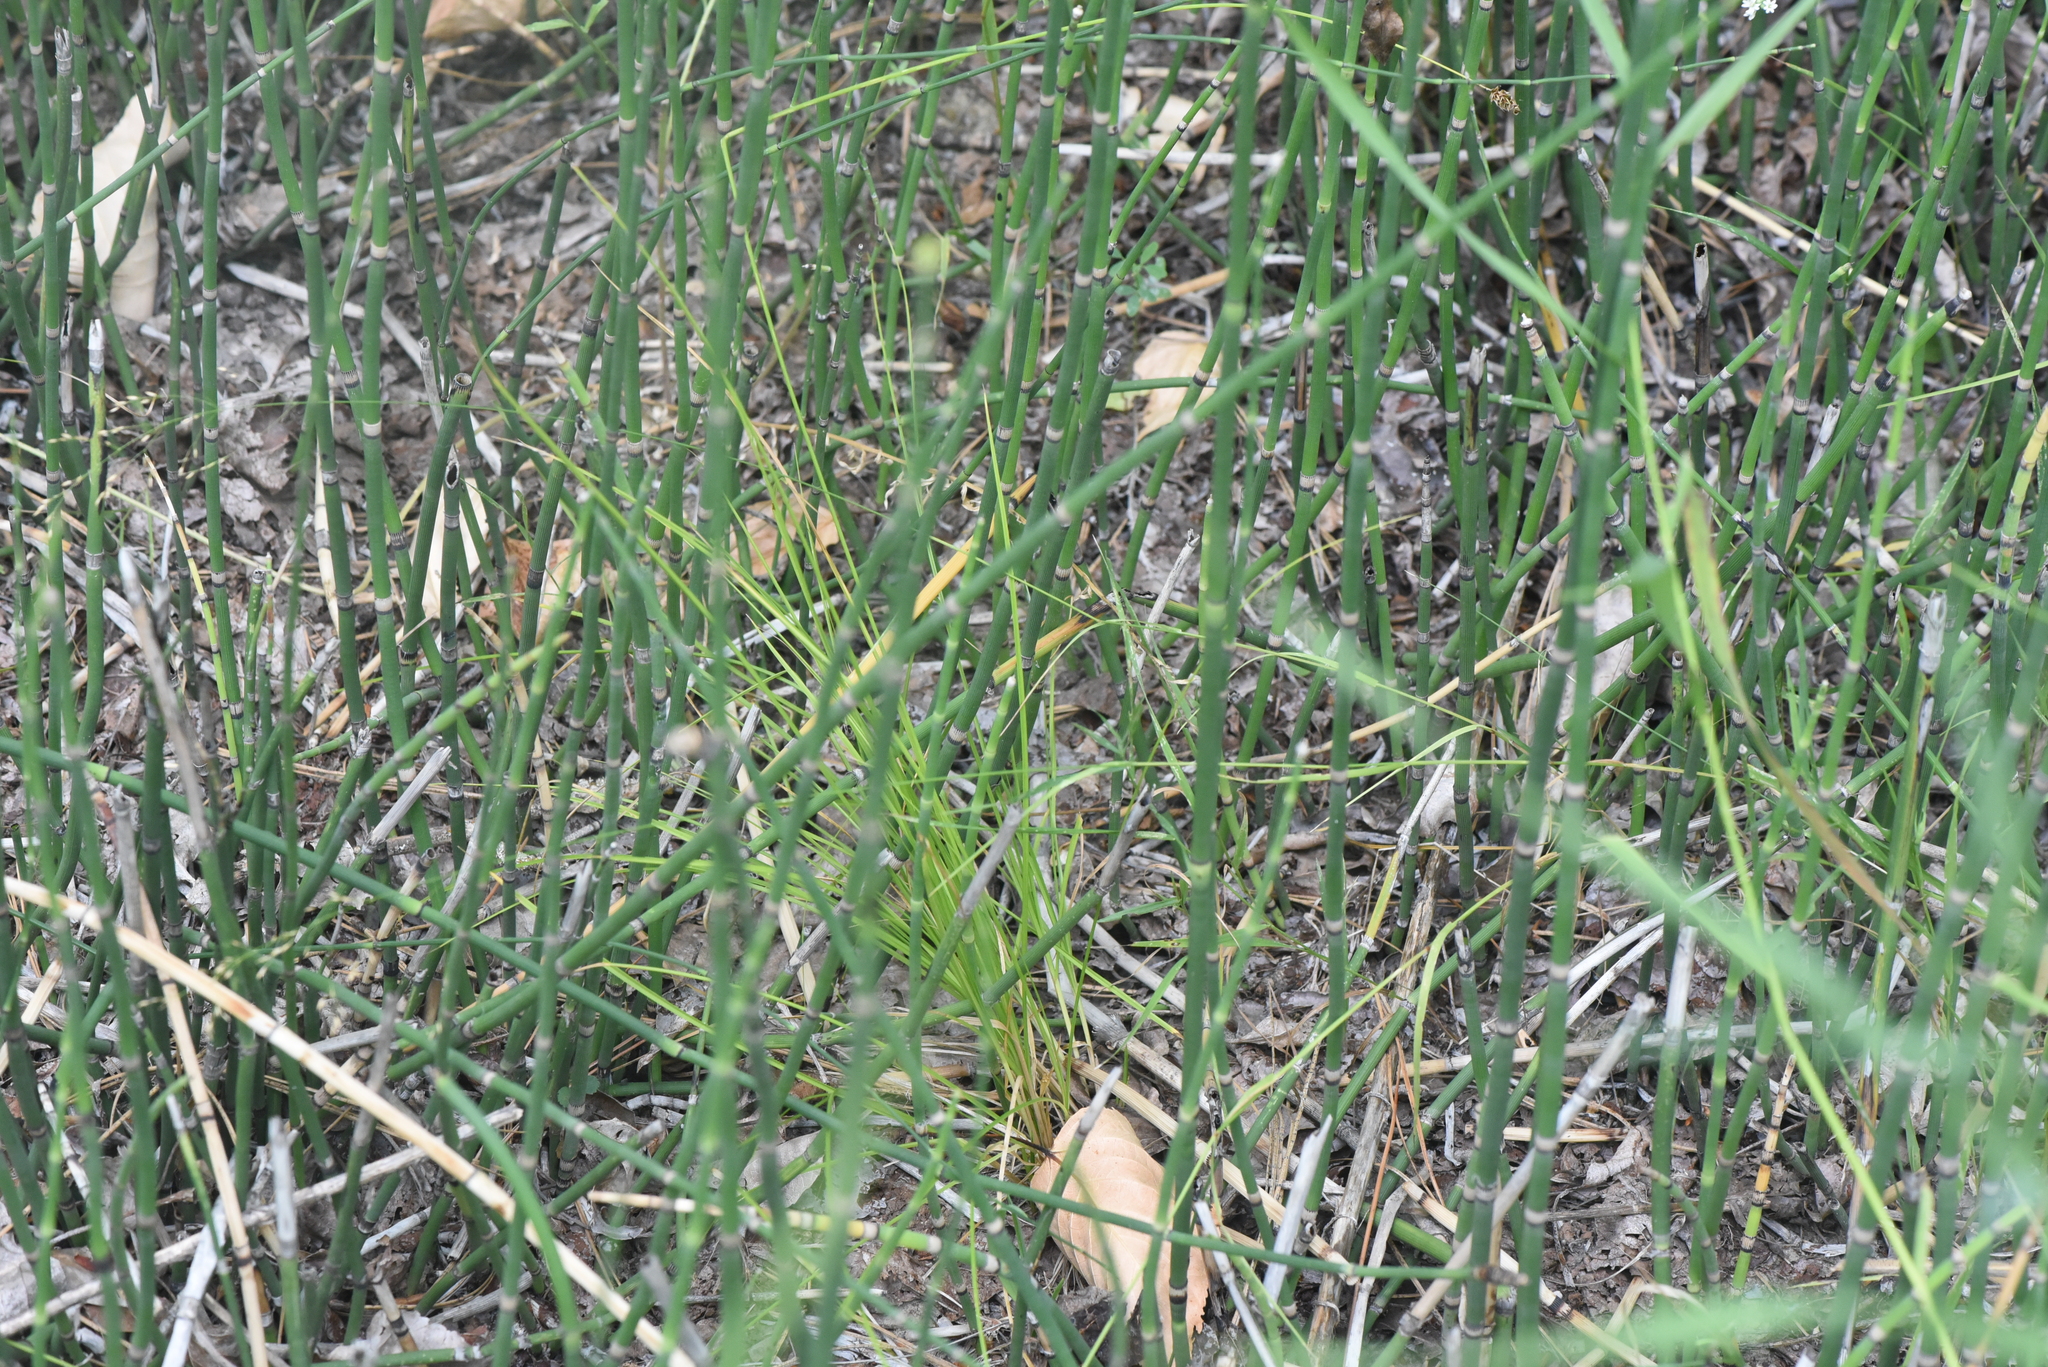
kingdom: Plantae
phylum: Tracheophyta
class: Liliopsida
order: Poales
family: Cyperaceae
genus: Carex
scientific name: Carex hoodii
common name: Hood's sedge
